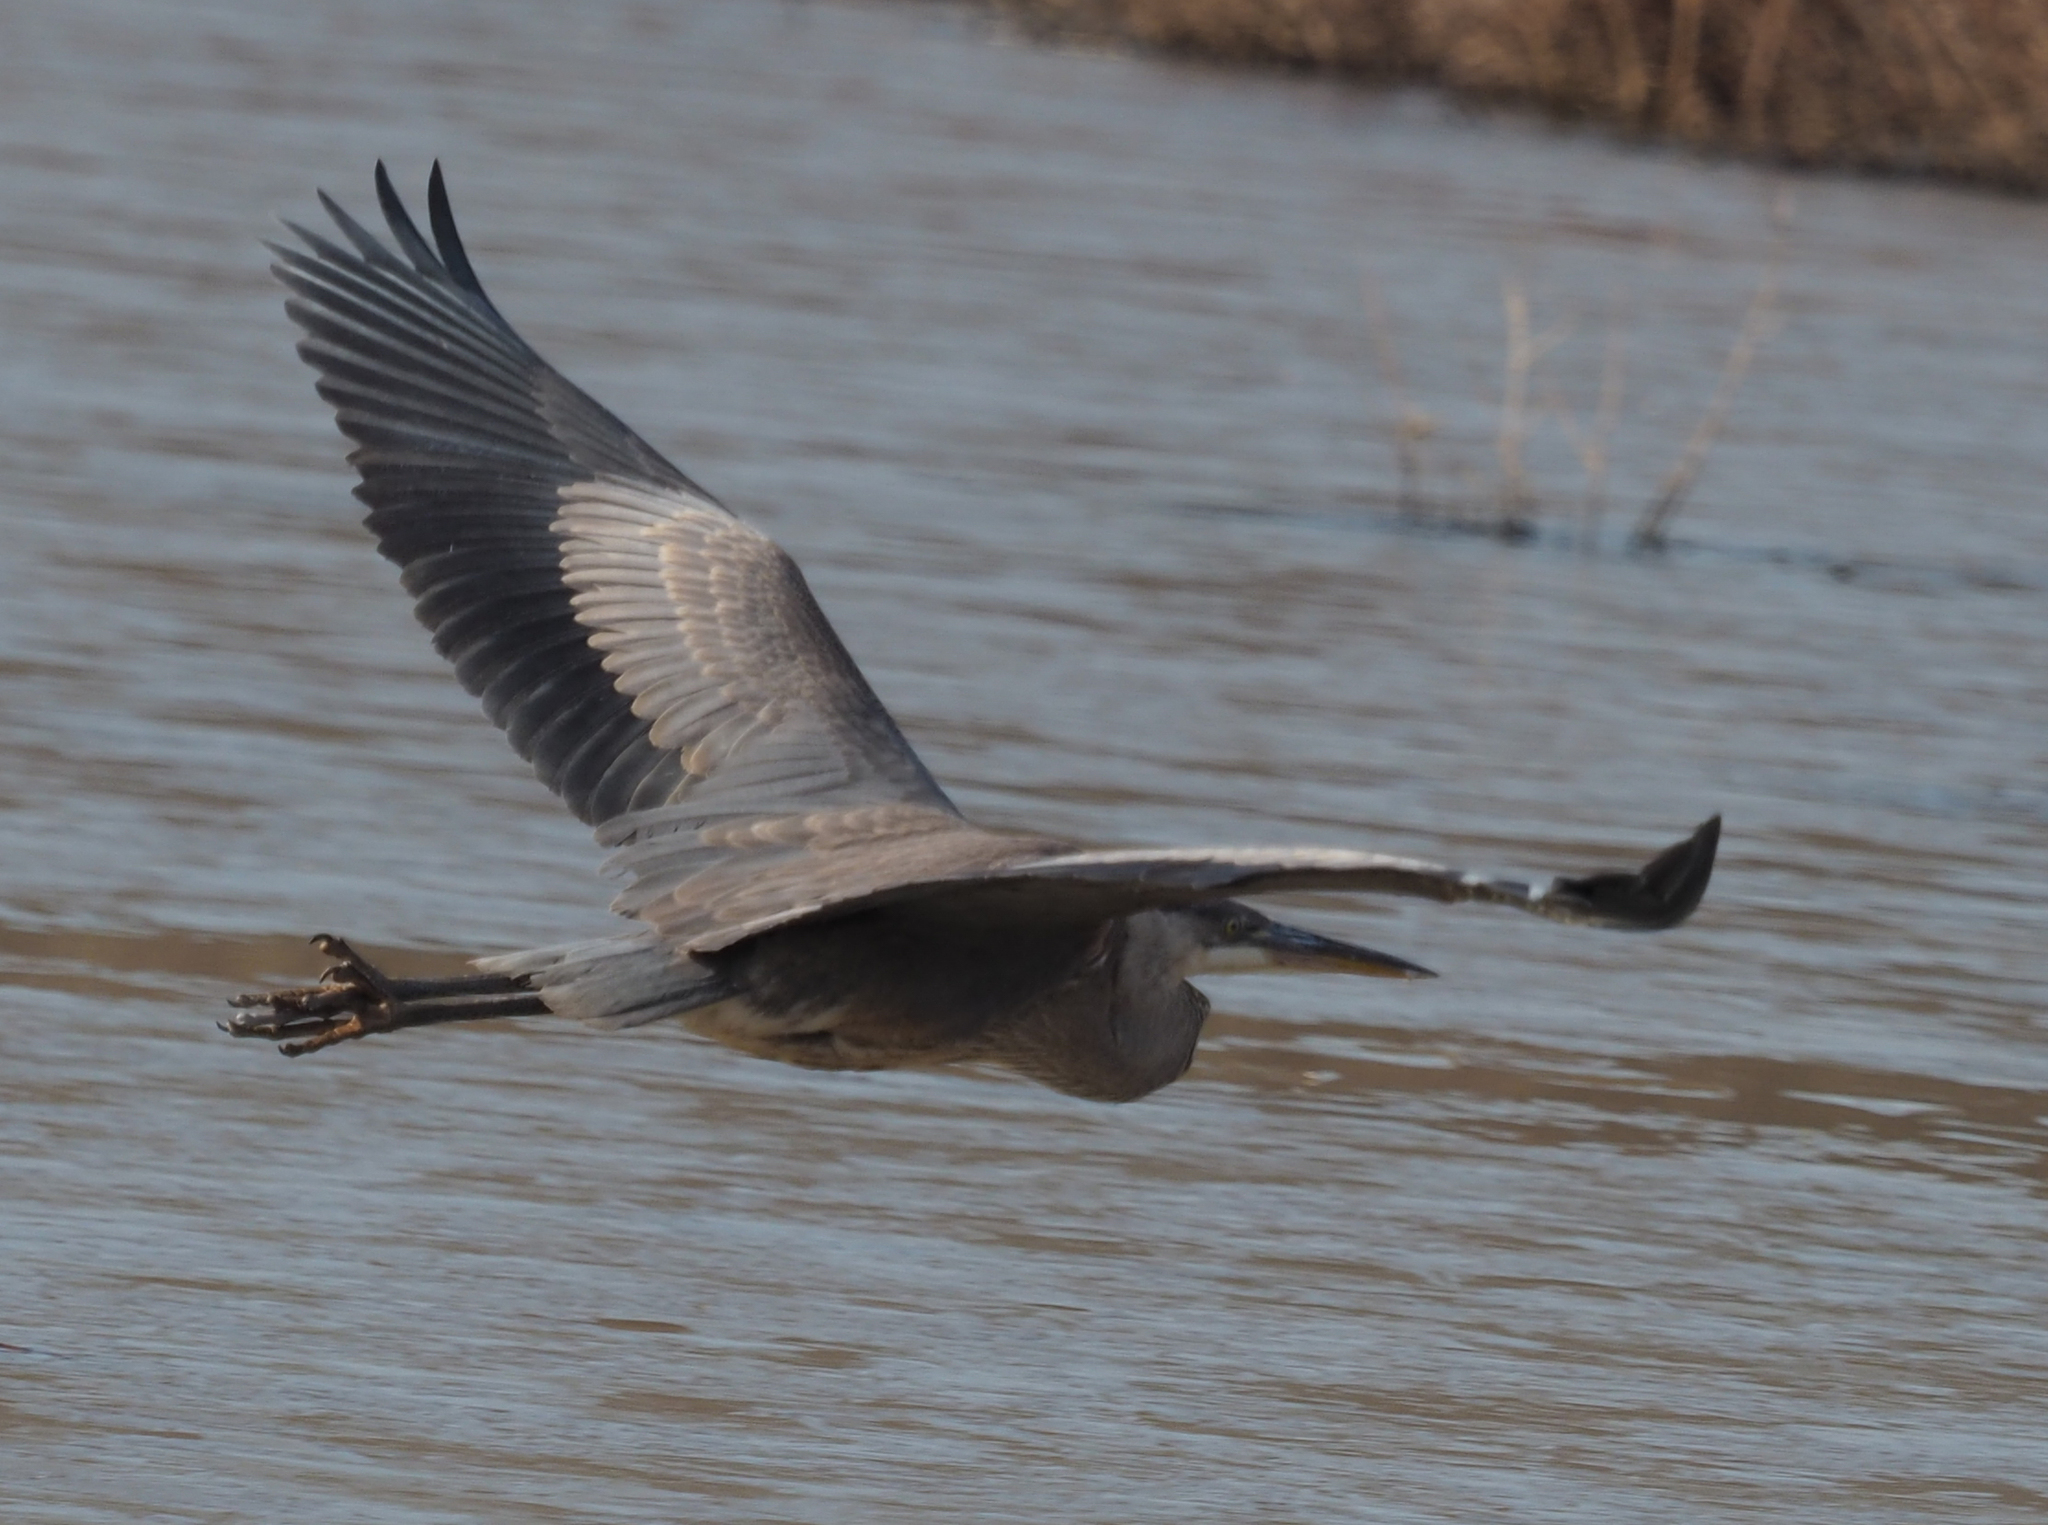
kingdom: Animalia
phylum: Chordata
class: Aves
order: Pelecaniformes
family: Ardeidae
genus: Ardea
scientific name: Ardea herodias
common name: Great blue heron
